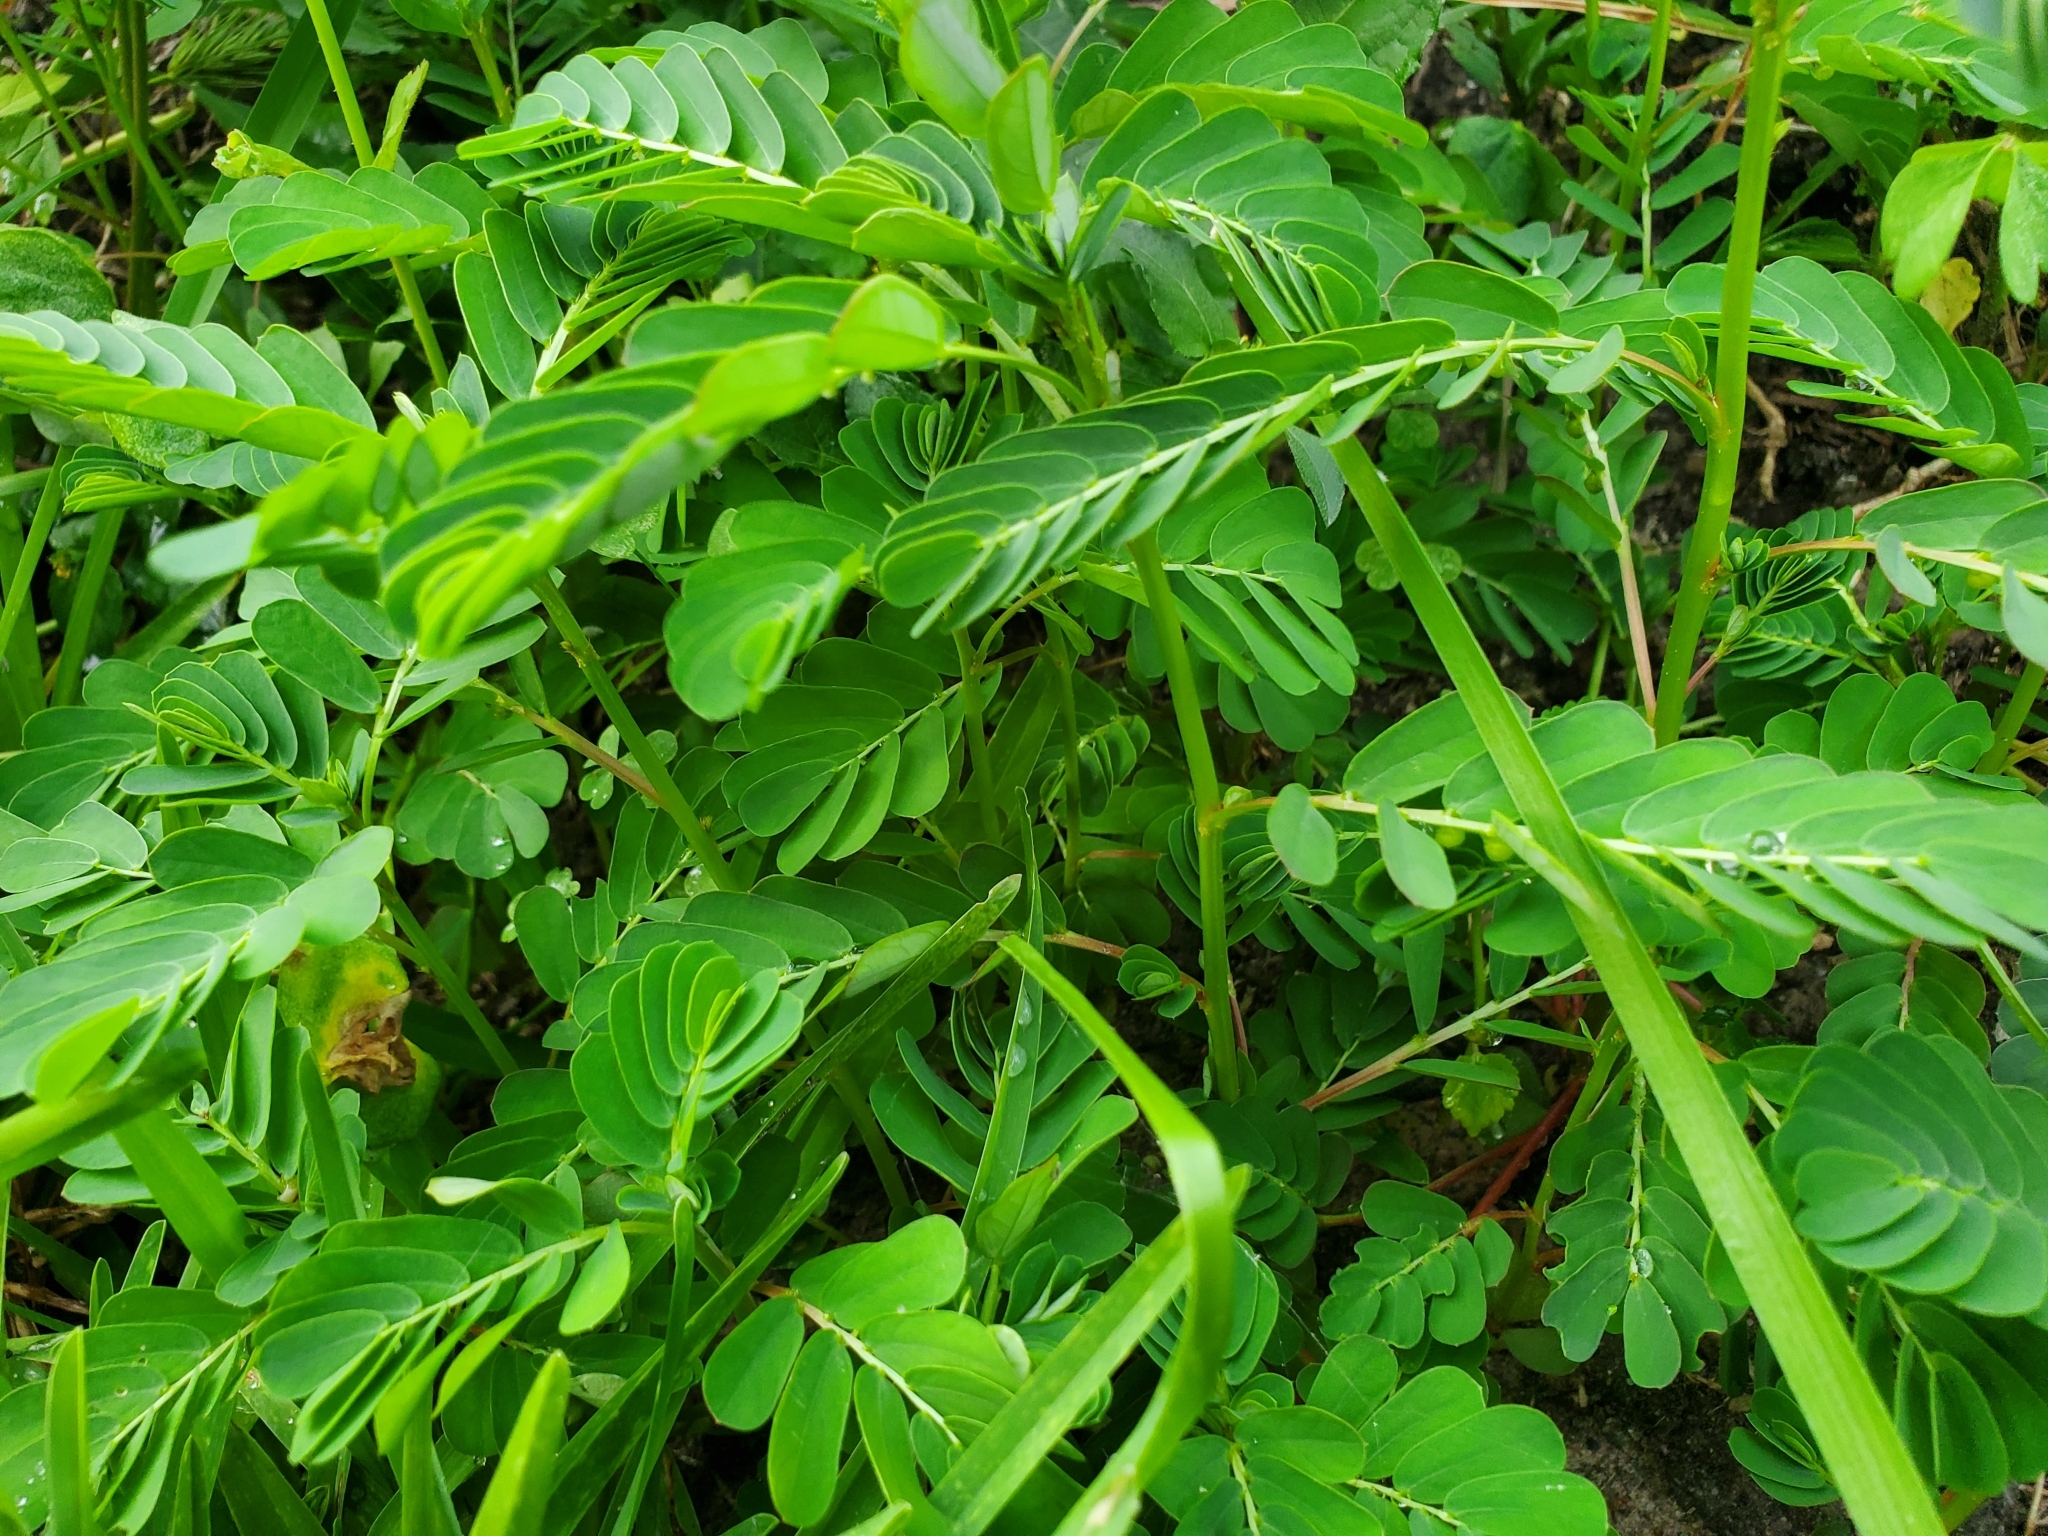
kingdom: Plantae
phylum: Tracheophyta
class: Magnoliopsida
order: Malpighiales
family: Phyllanthaceae
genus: Phyllanthus
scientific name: Phyllanthus urinaria
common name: Chamber bitter
